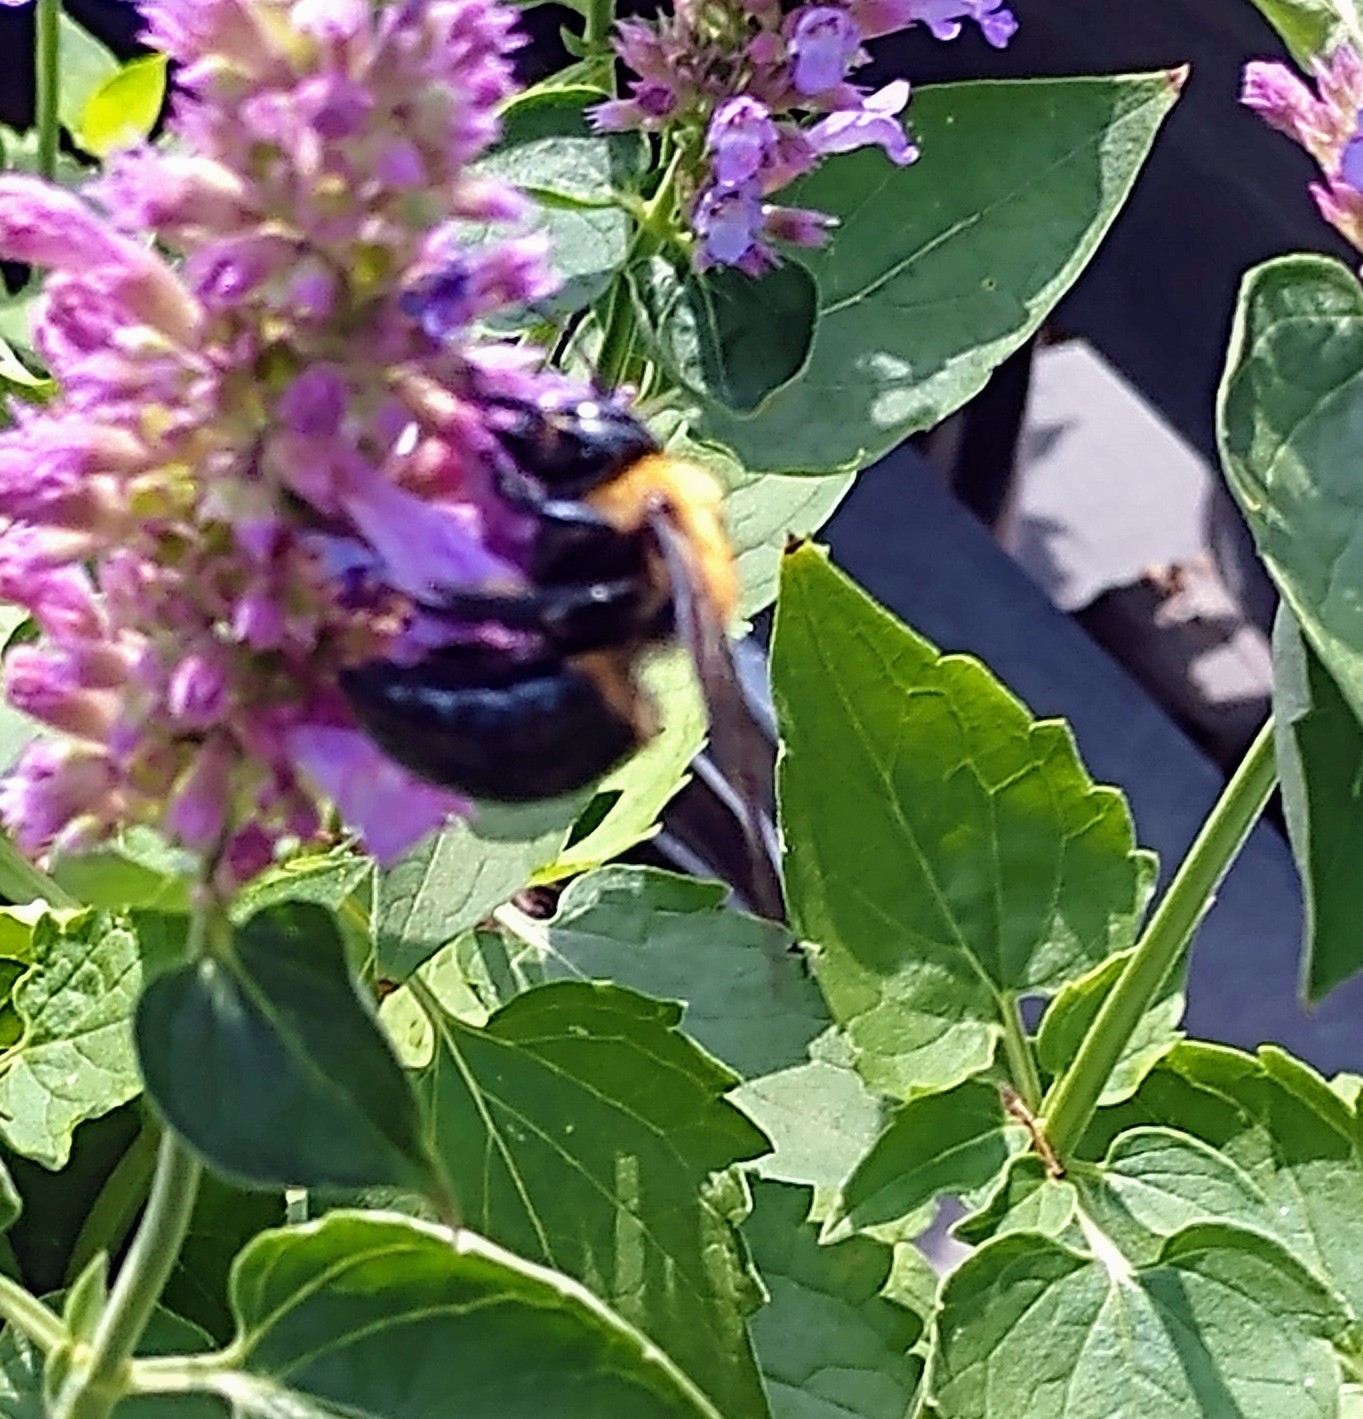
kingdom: Animalia
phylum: Arthropoda
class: Insecta
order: Hymenoptera
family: Apidae
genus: Xylocopa
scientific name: Xylocopa virginica
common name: Carpenter bee
